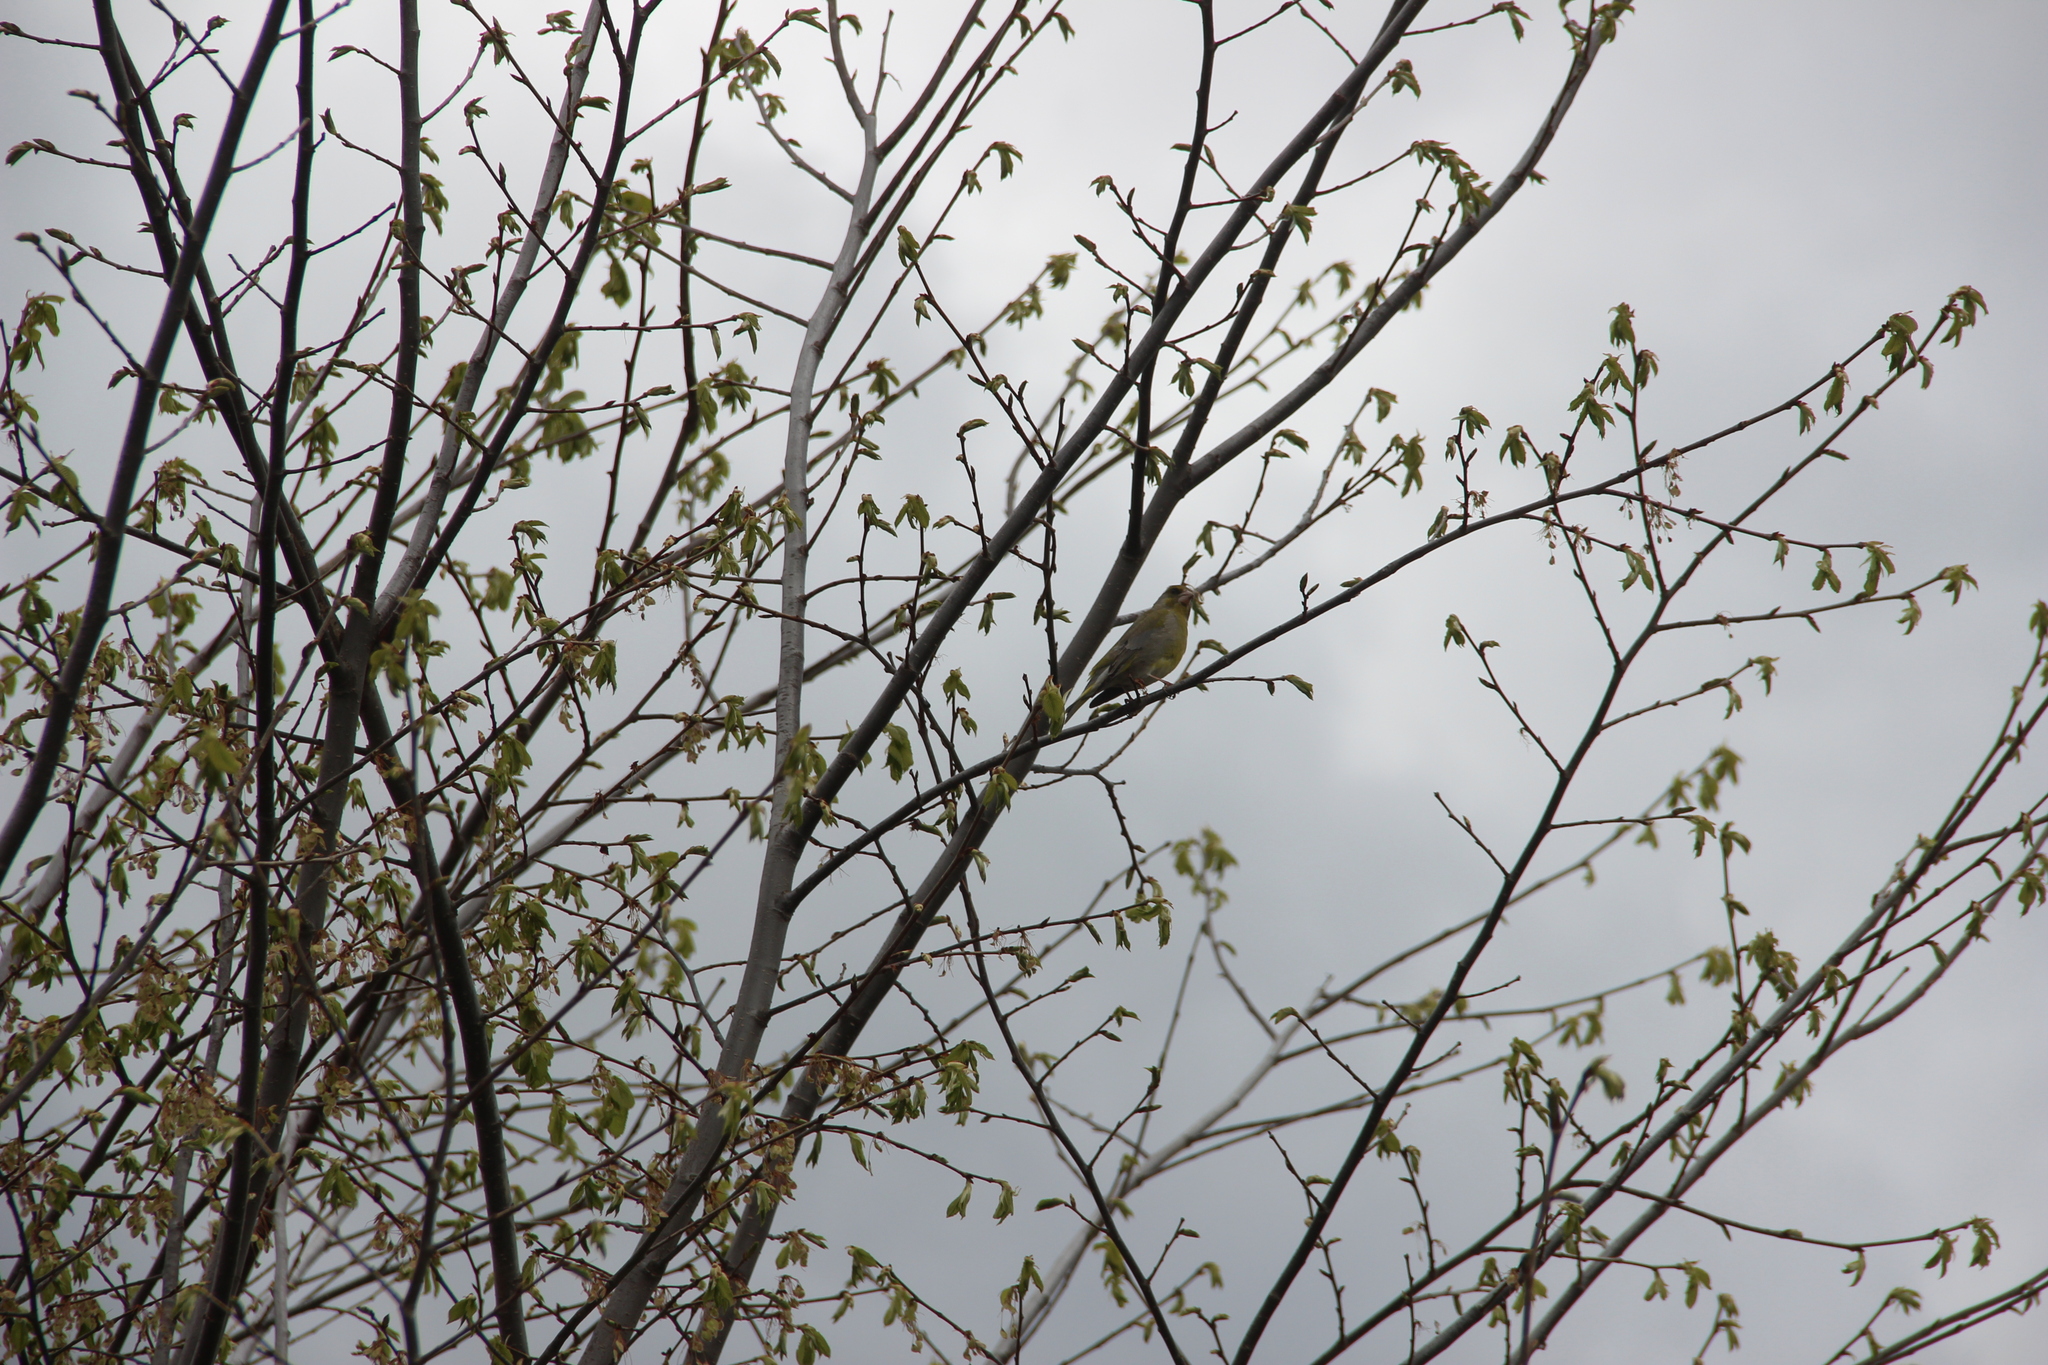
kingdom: Plantae
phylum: Tracheophyta
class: Liliopsida
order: Poales
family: Poaceae
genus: Chloris
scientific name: Chloris chloris
